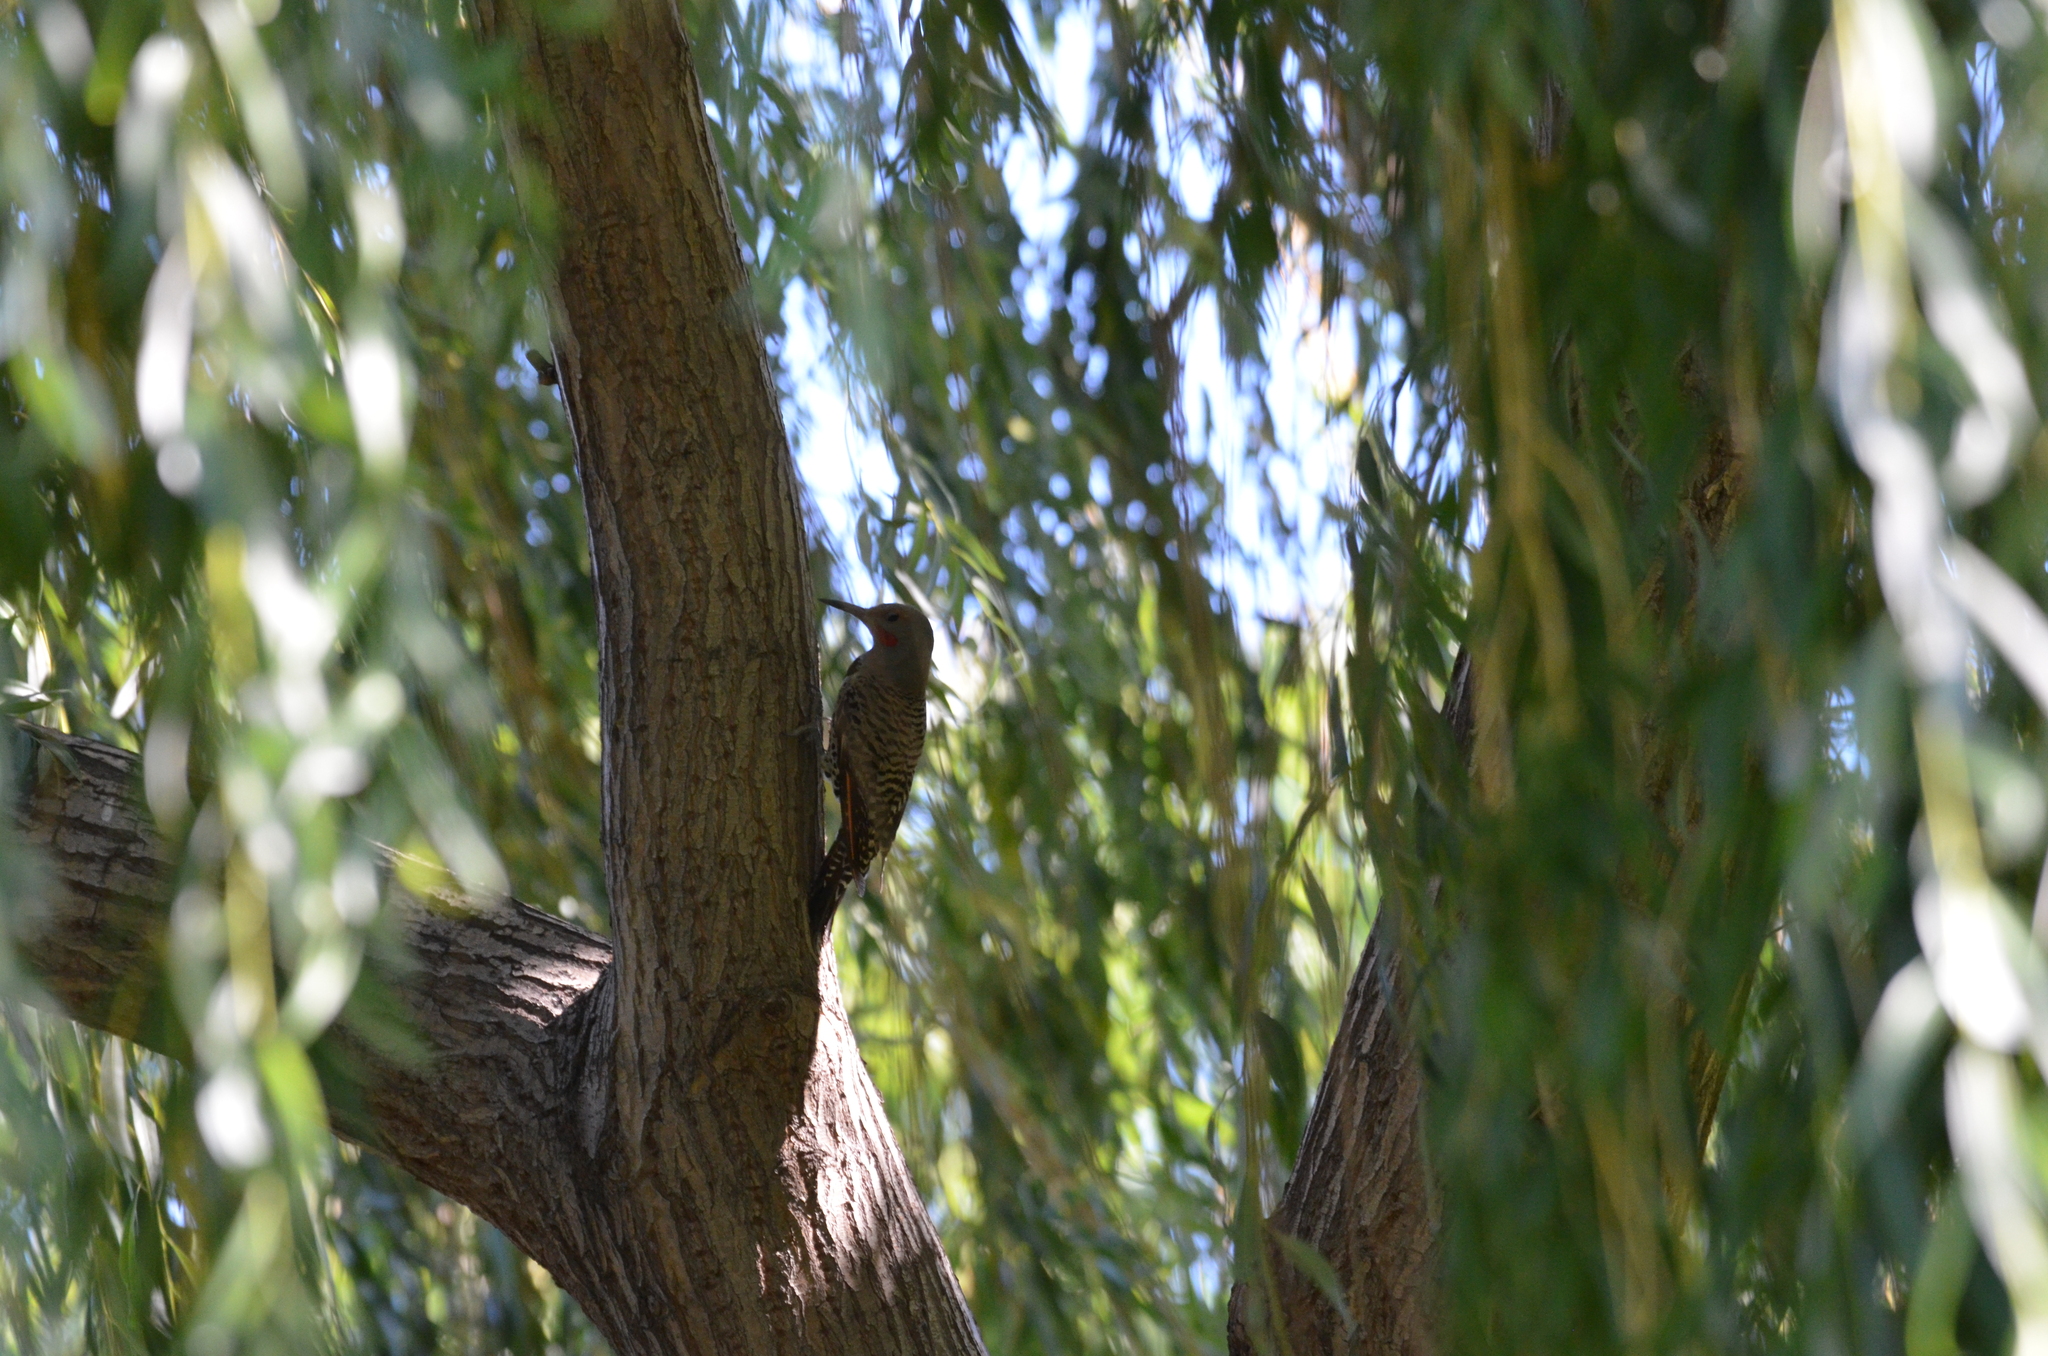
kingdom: Animalia
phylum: Chordata
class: Aves
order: Piciformes
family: Picidae
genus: Colaptes
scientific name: Colaptes auratus
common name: Northern flicker
